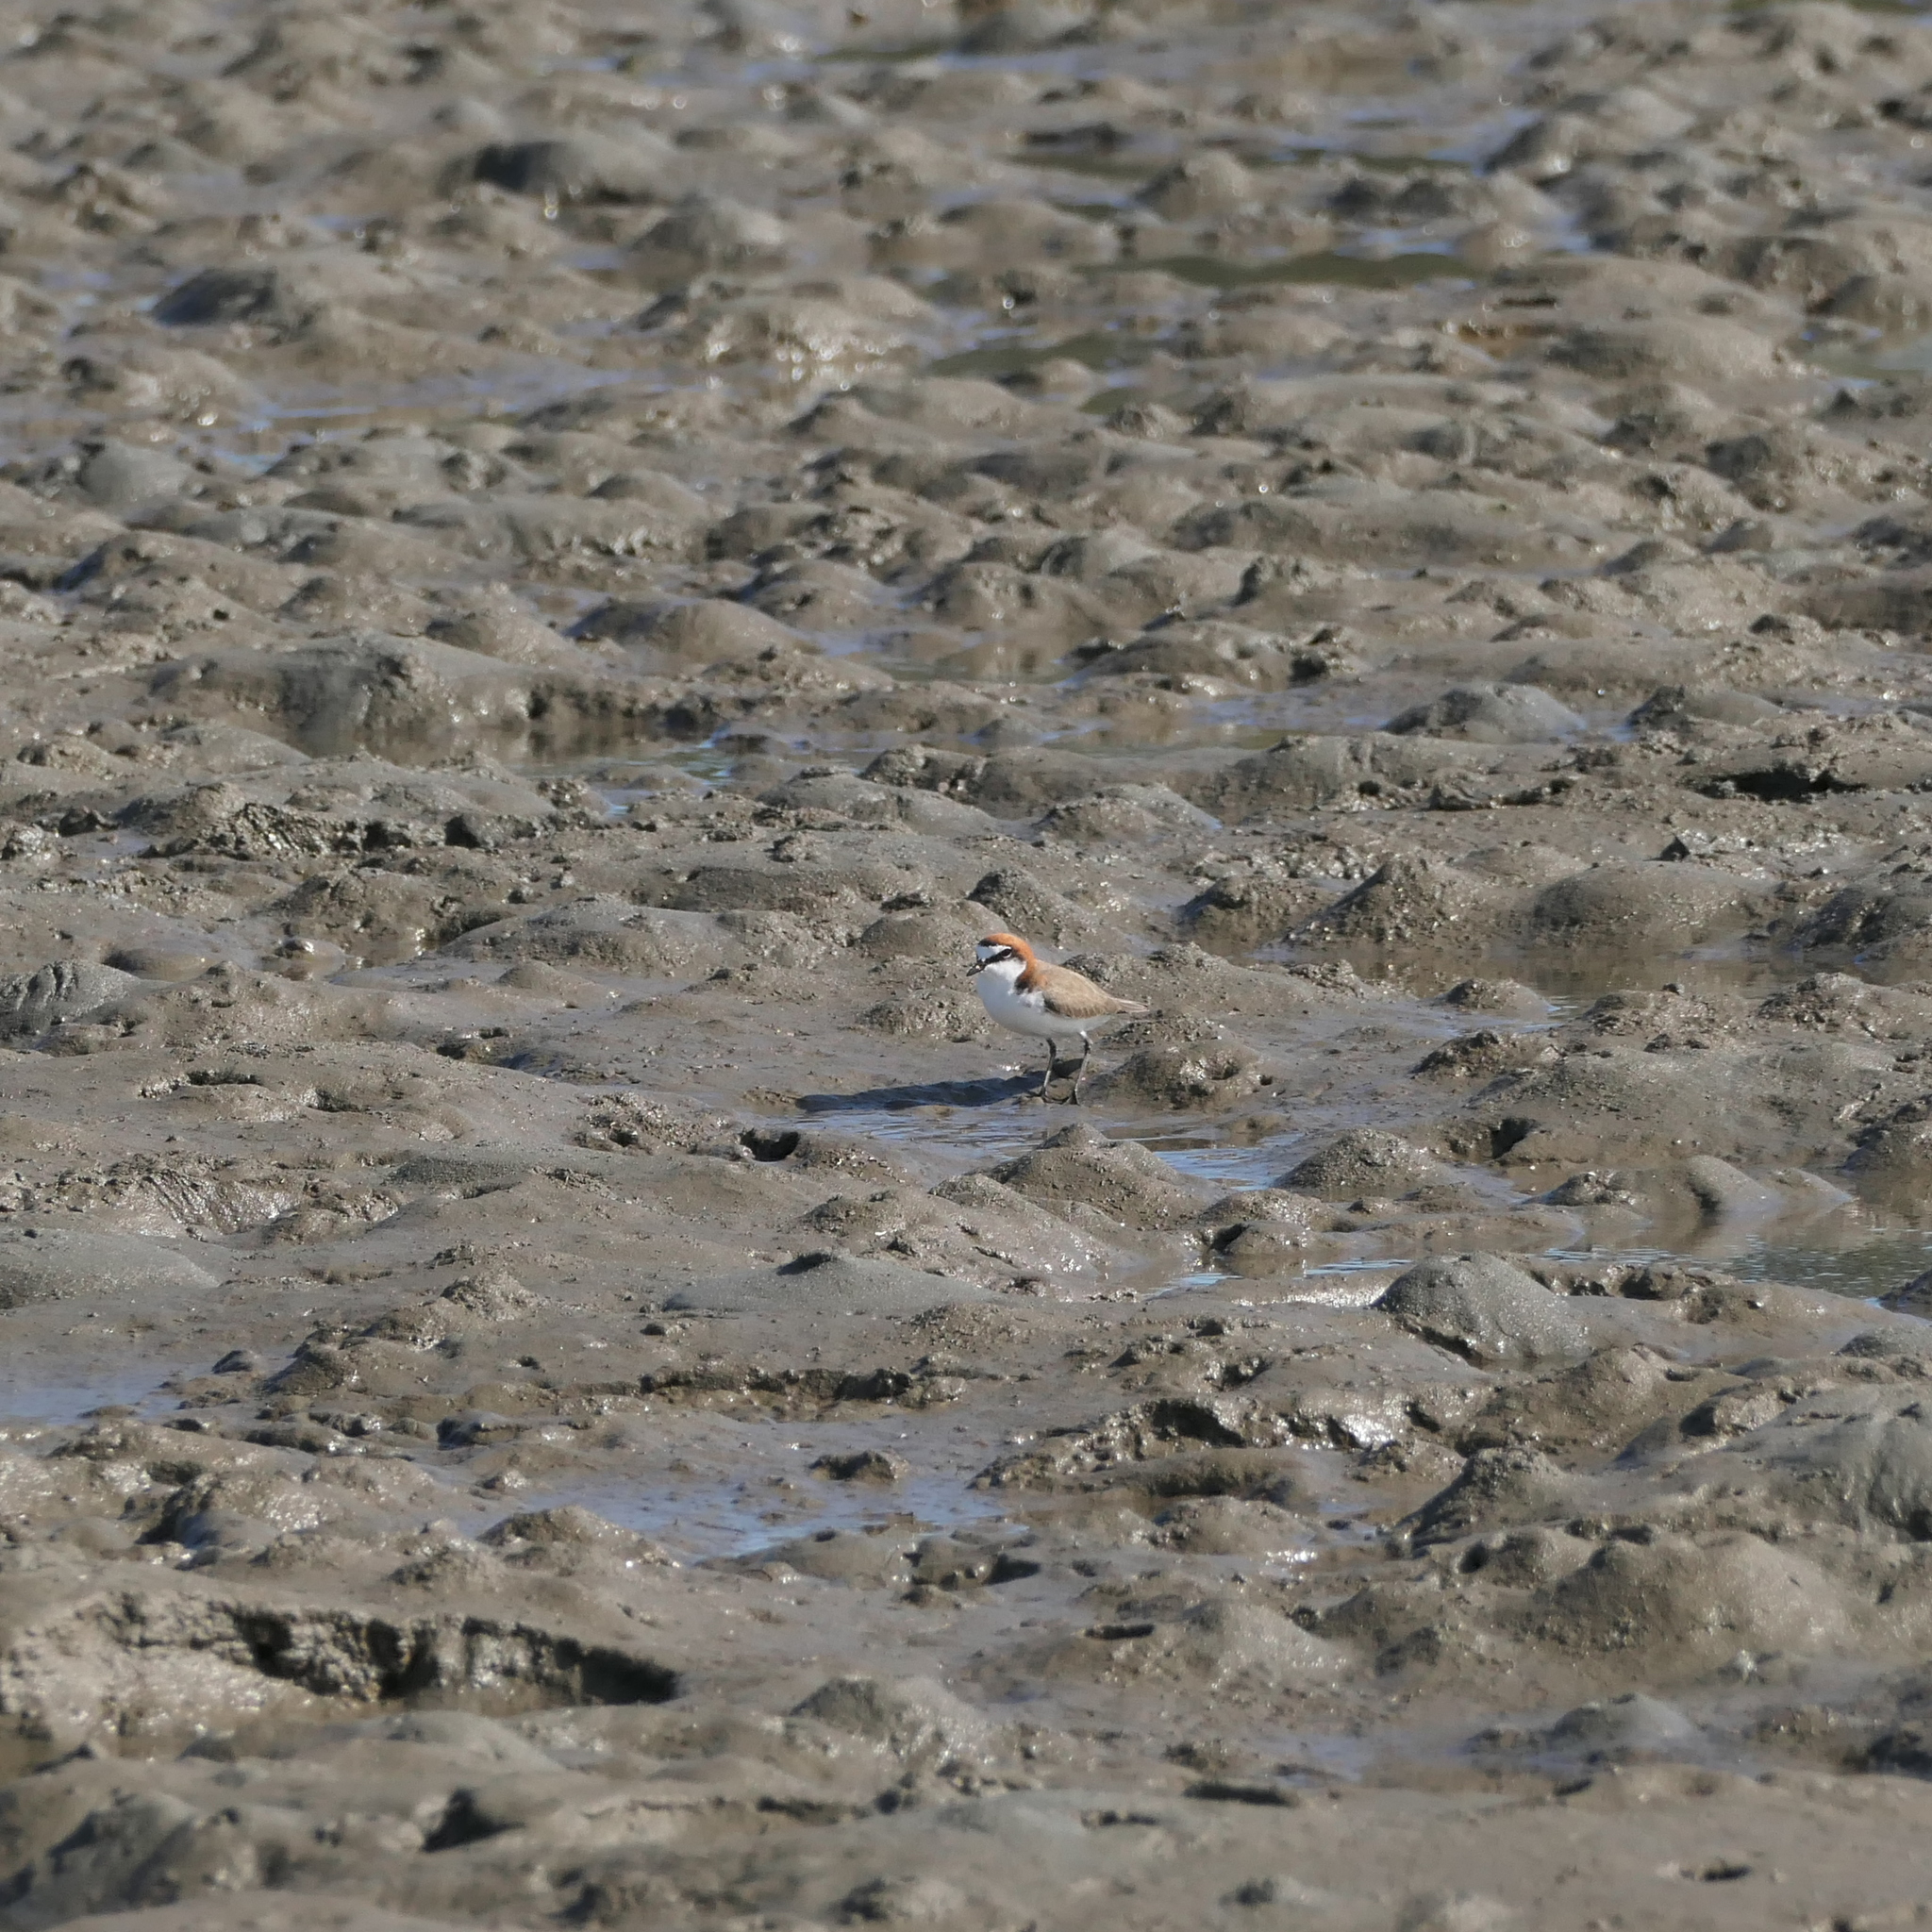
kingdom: Animalia
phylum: Chordata
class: Aves
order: Charadriiformes
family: Charadriidae
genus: Anarhynchus
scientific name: Anarhynchus
